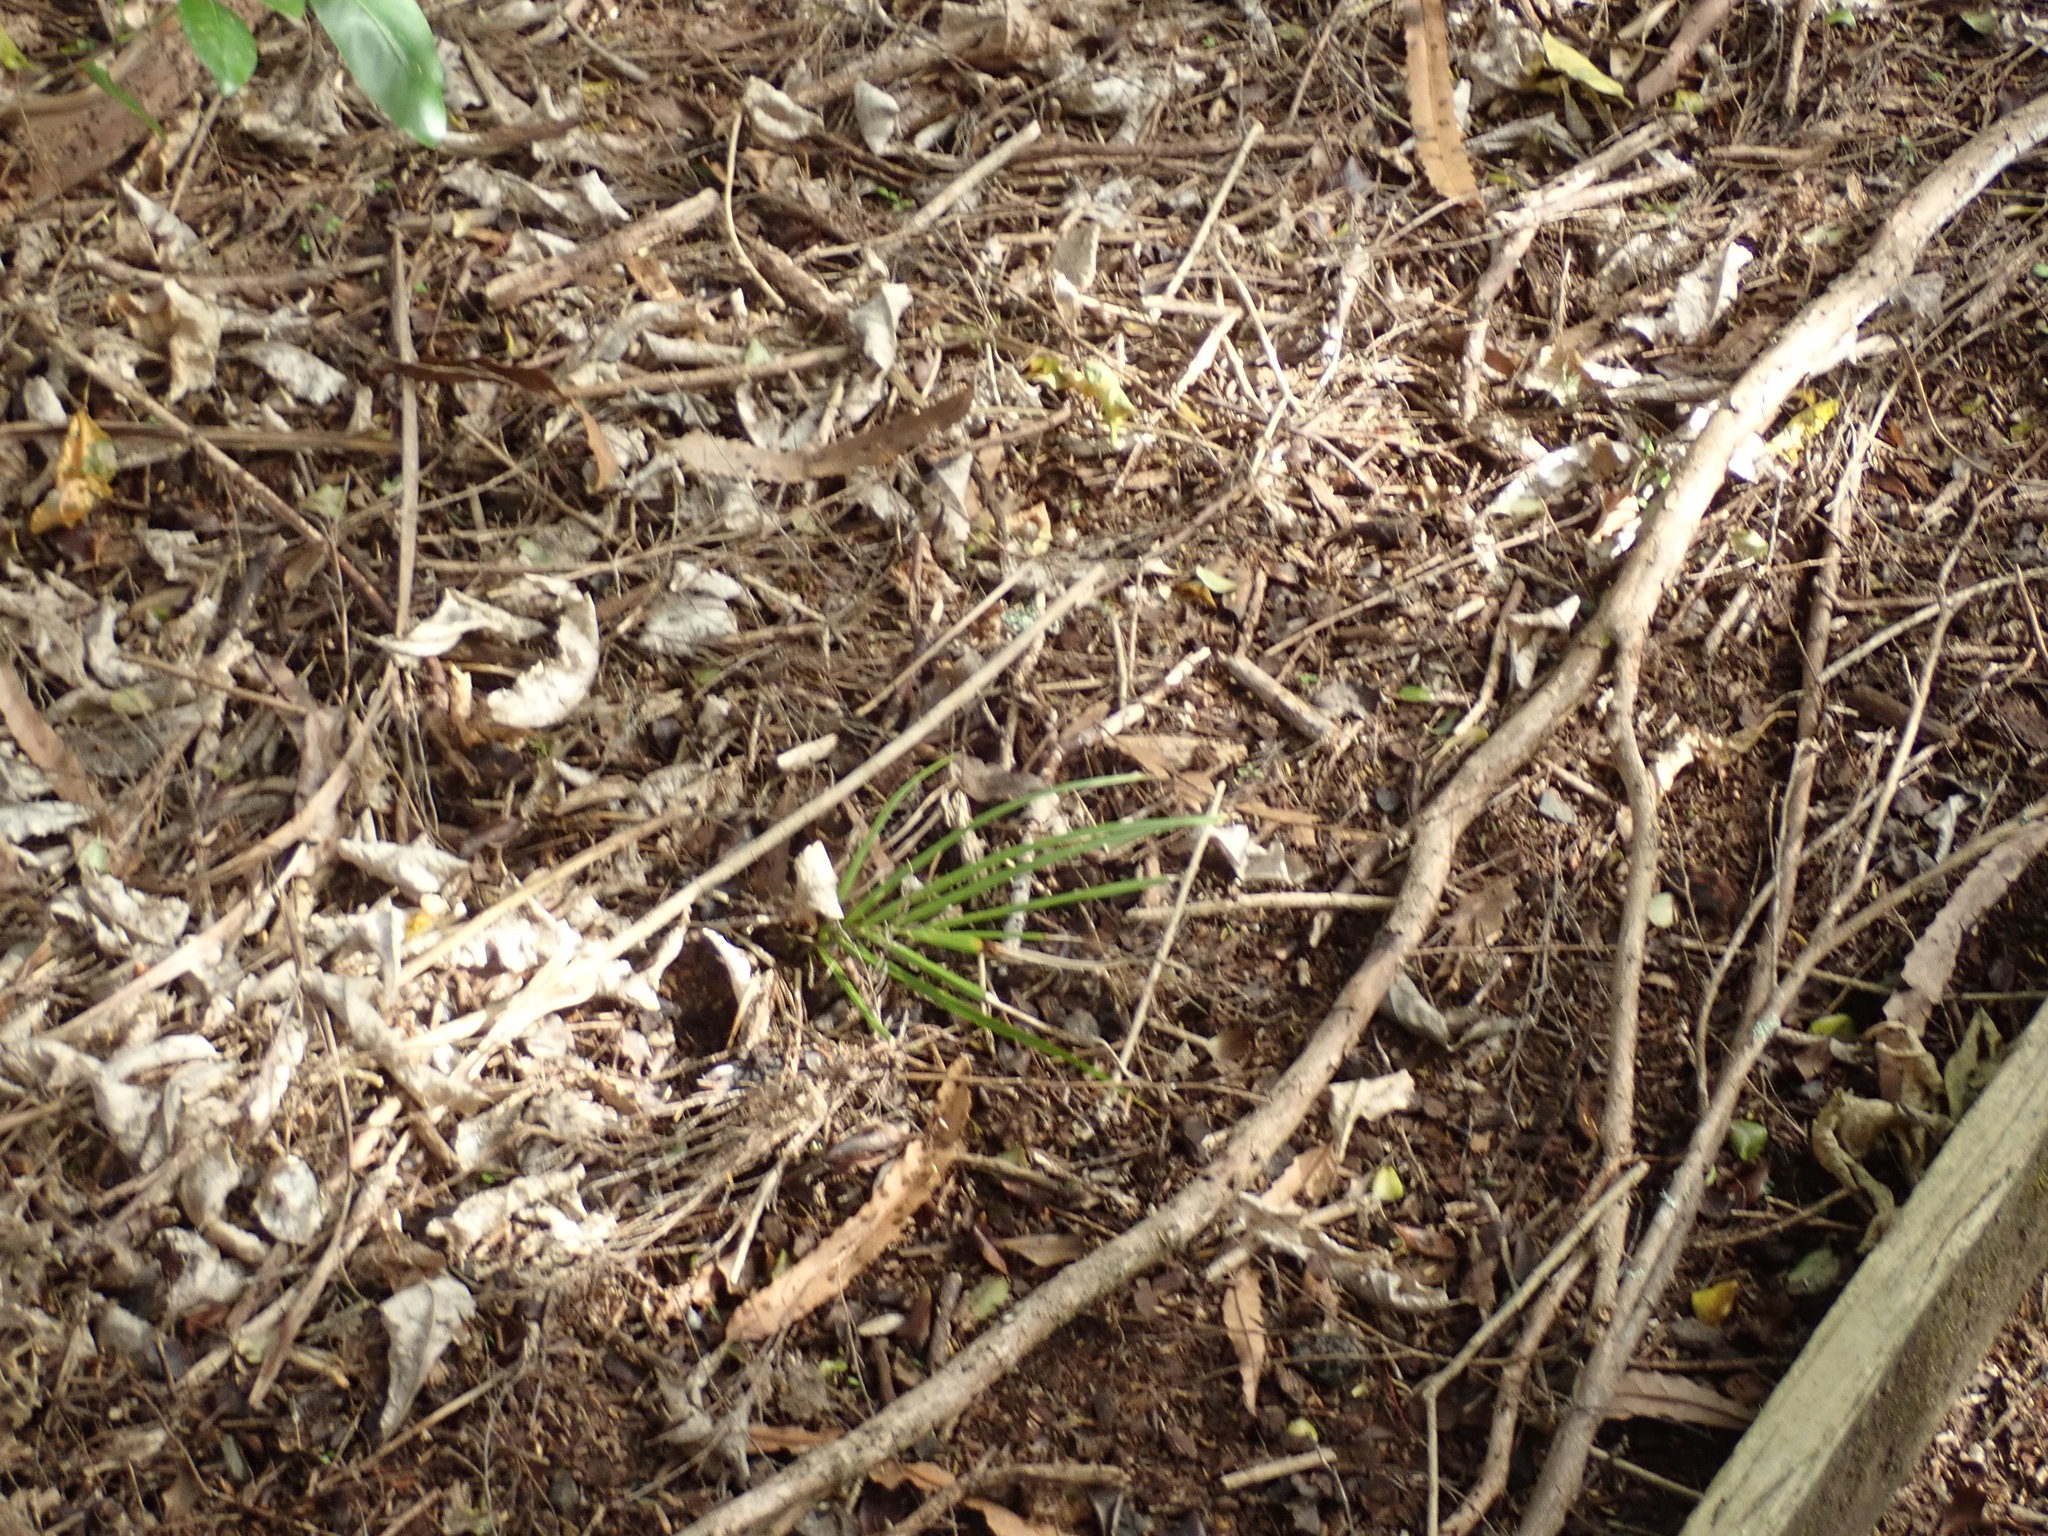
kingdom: Plantae
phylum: Tracheophyta
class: Liliopsida
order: Arecales
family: Arecaceae
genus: Rhopalostylis
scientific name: Rhopalostylis sapida
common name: Feather-duster palm
